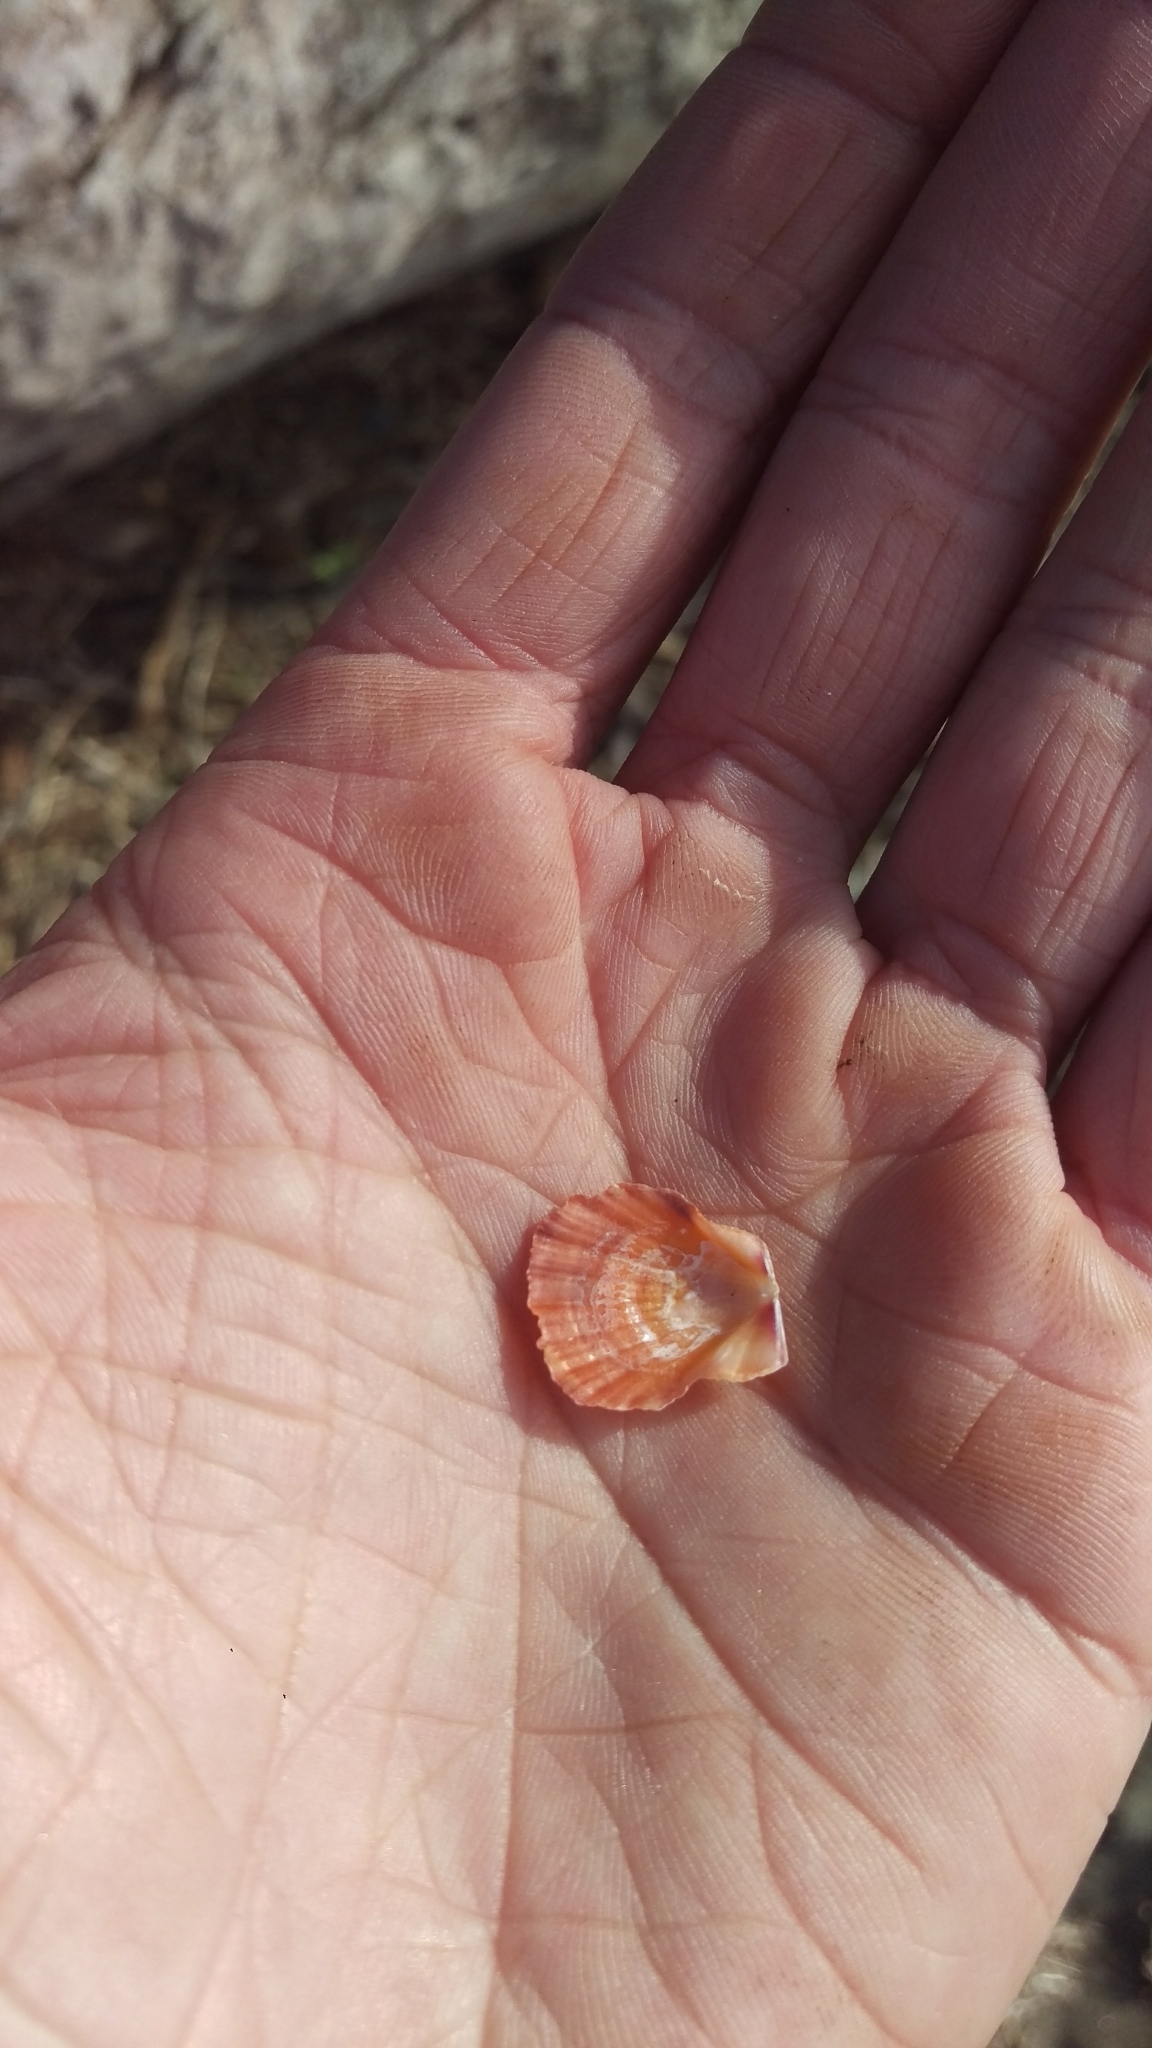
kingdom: Animalia
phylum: Mollusca
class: Bivalvia
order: Pectinida
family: Pectinidae
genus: Crassadoma
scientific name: Crassadoma gigantea
